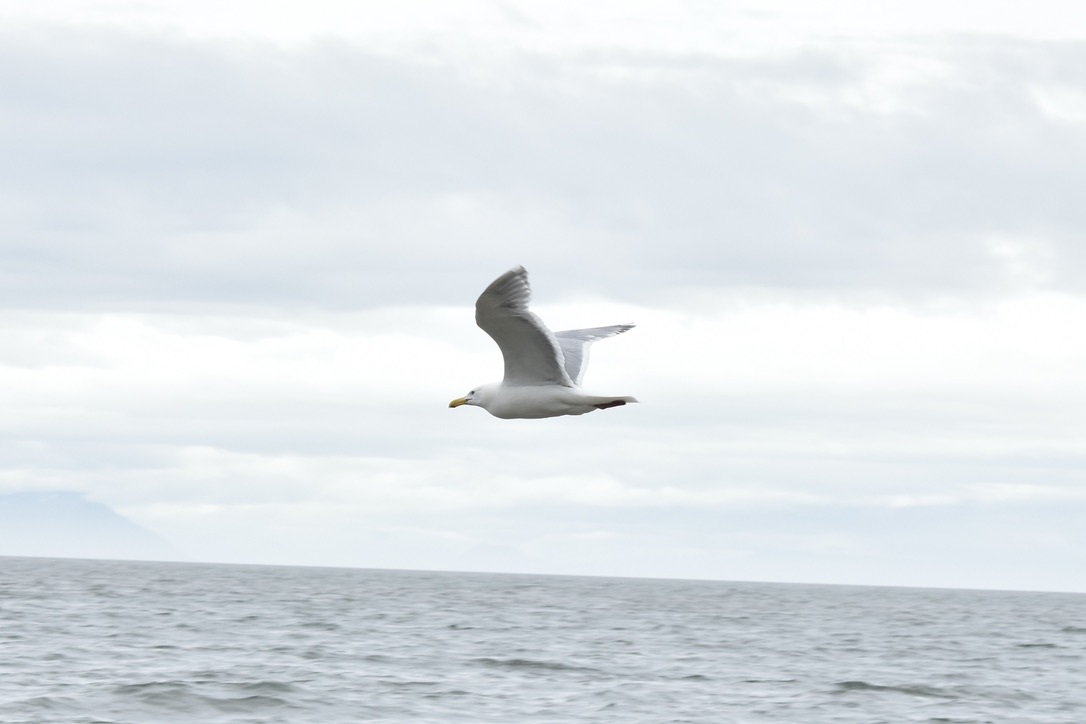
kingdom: Animalia
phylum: Chordata
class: Aves
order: Charadriiformes
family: Laridae
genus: Larus
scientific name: Larus
